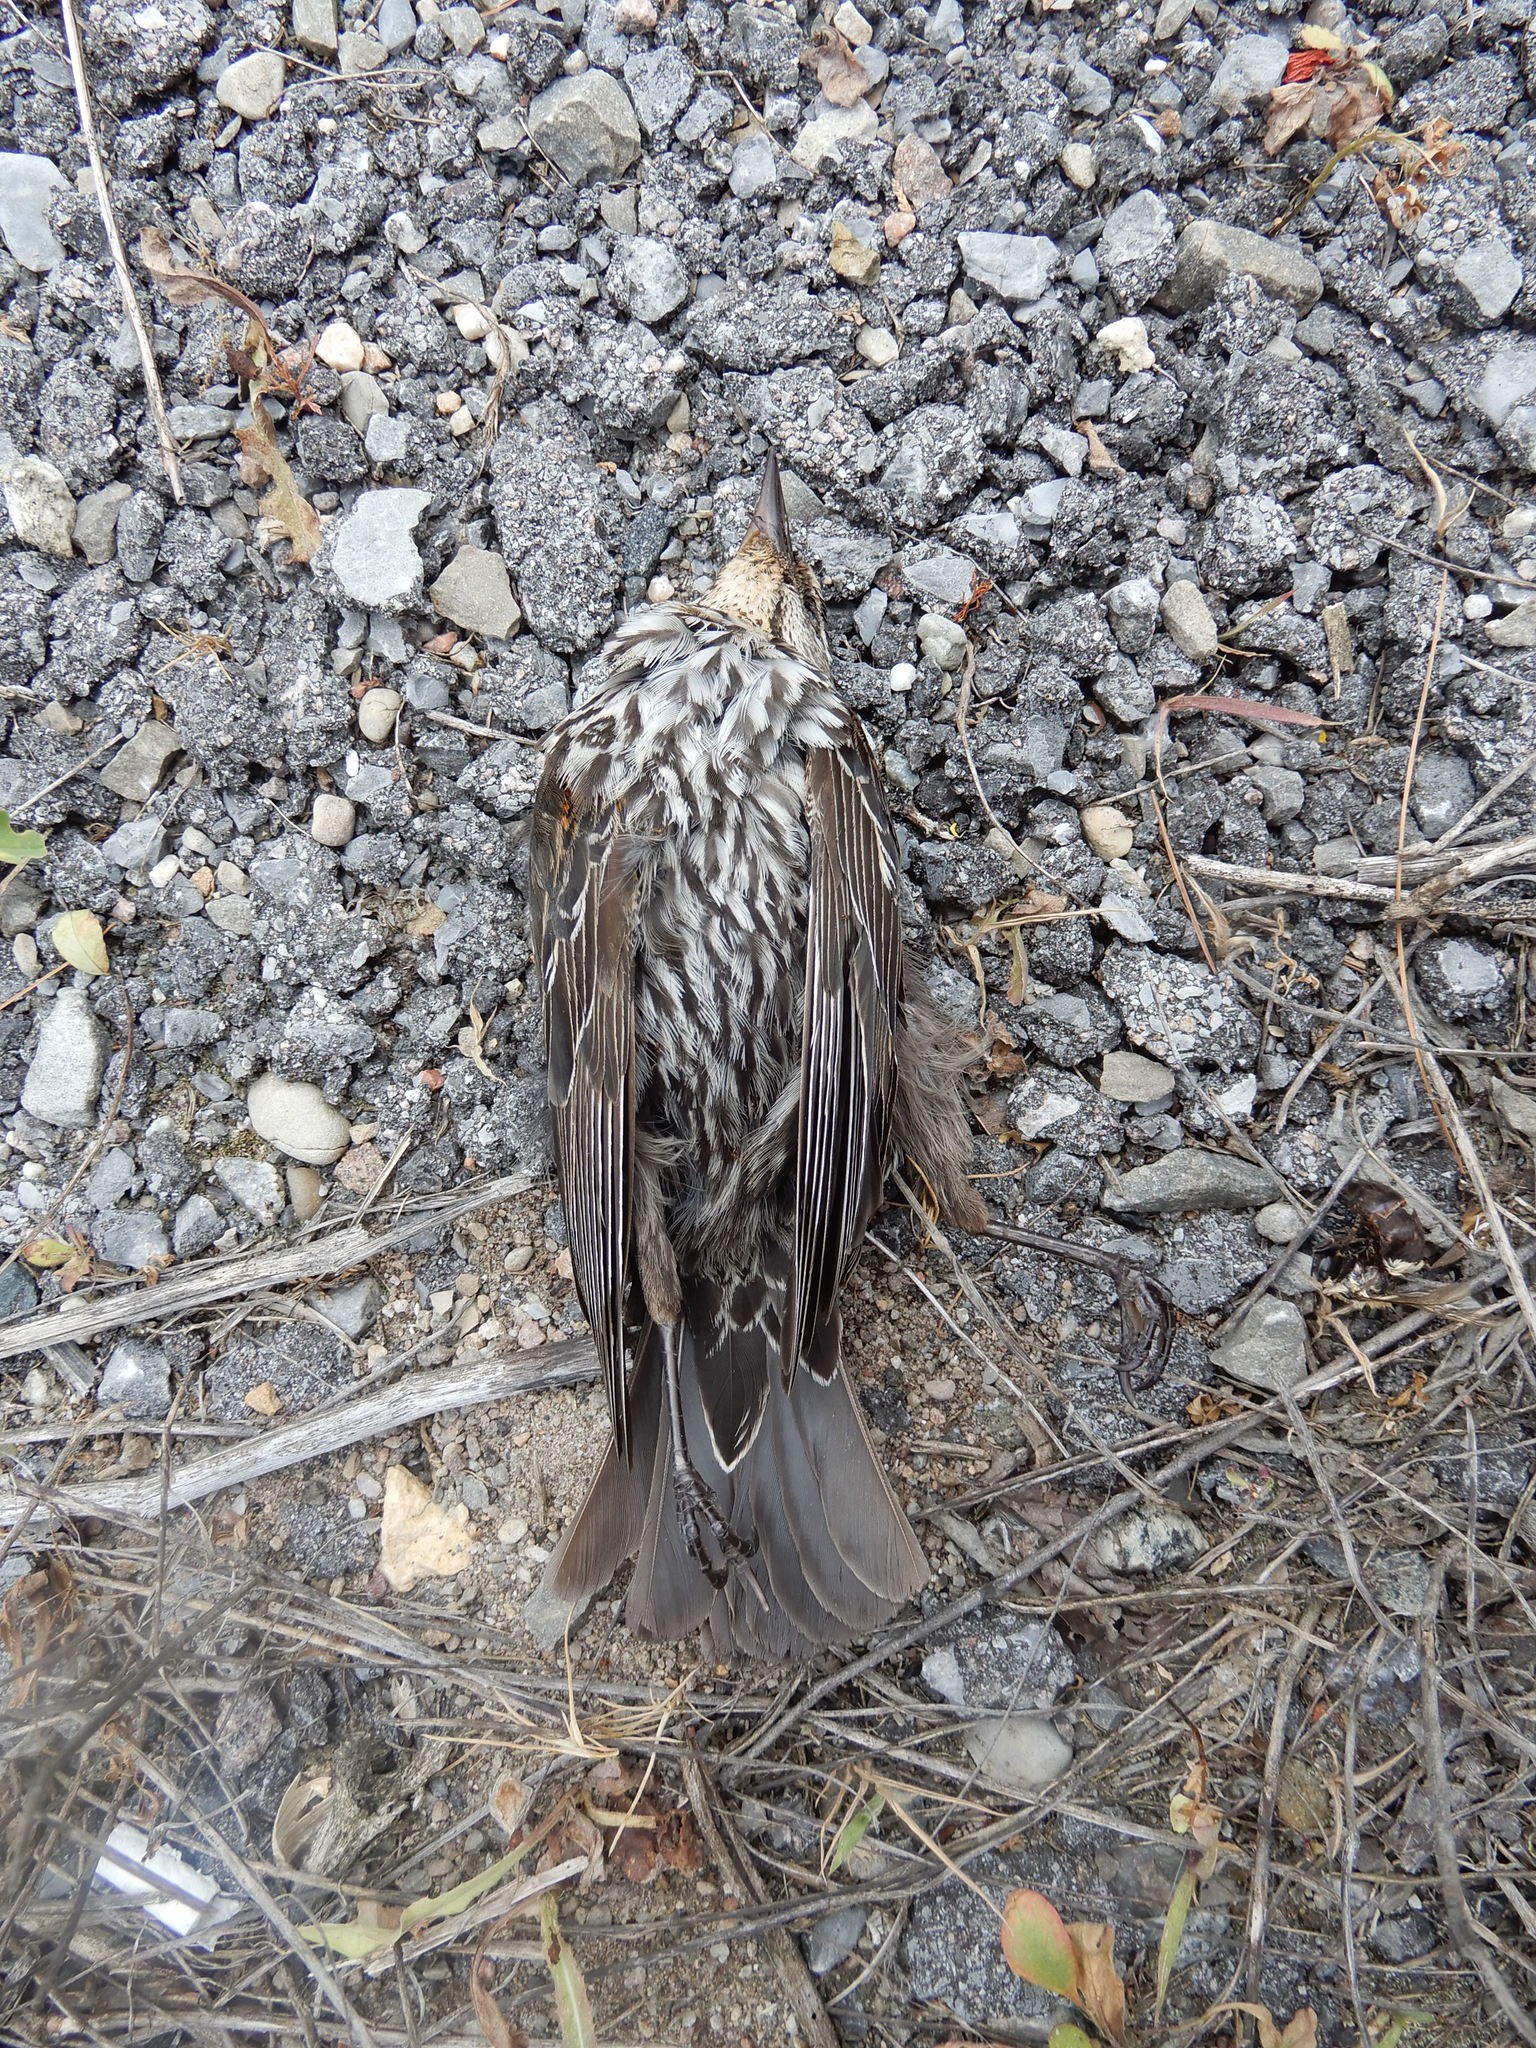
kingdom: Animalia
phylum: Chordata
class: Aves
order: Passeriformes
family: Icteridae
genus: Agelaius
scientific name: Agelaius phoeniceus
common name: Red-winged blackbird
